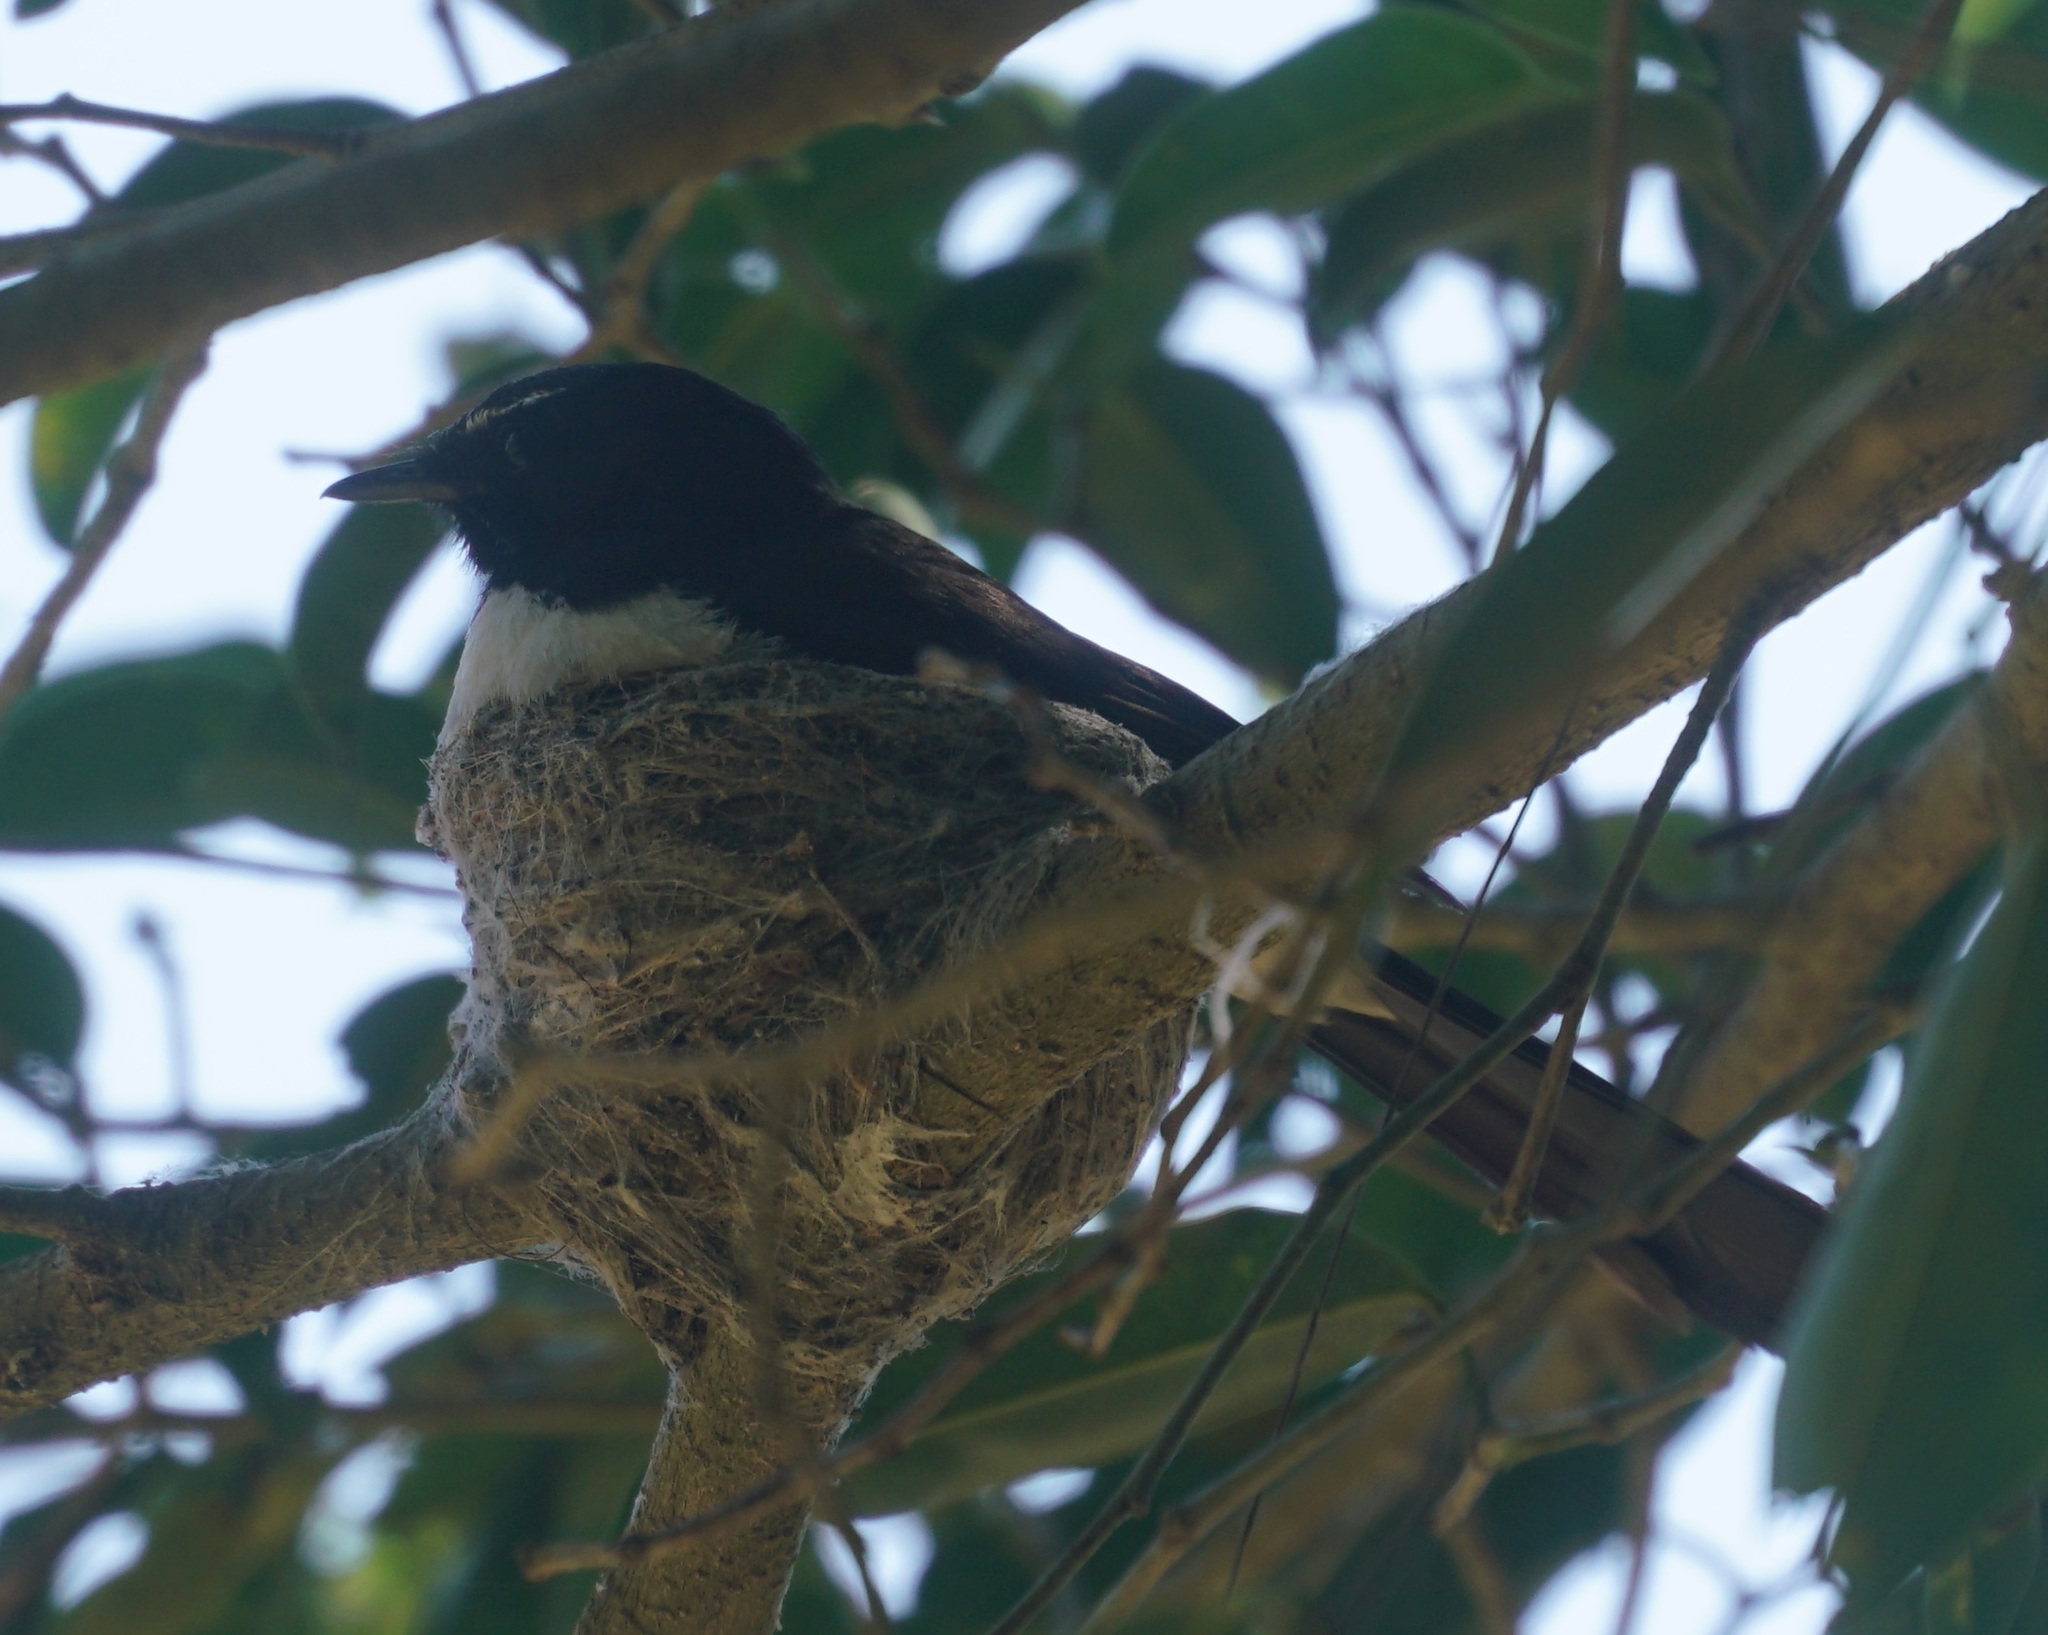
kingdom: Animalia
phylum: Chordata
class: Aves
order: Passeriformes
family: Rhipiduridae
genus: Rhipidura
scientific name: Rhipidura leucophrys
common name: Willie wagtail
